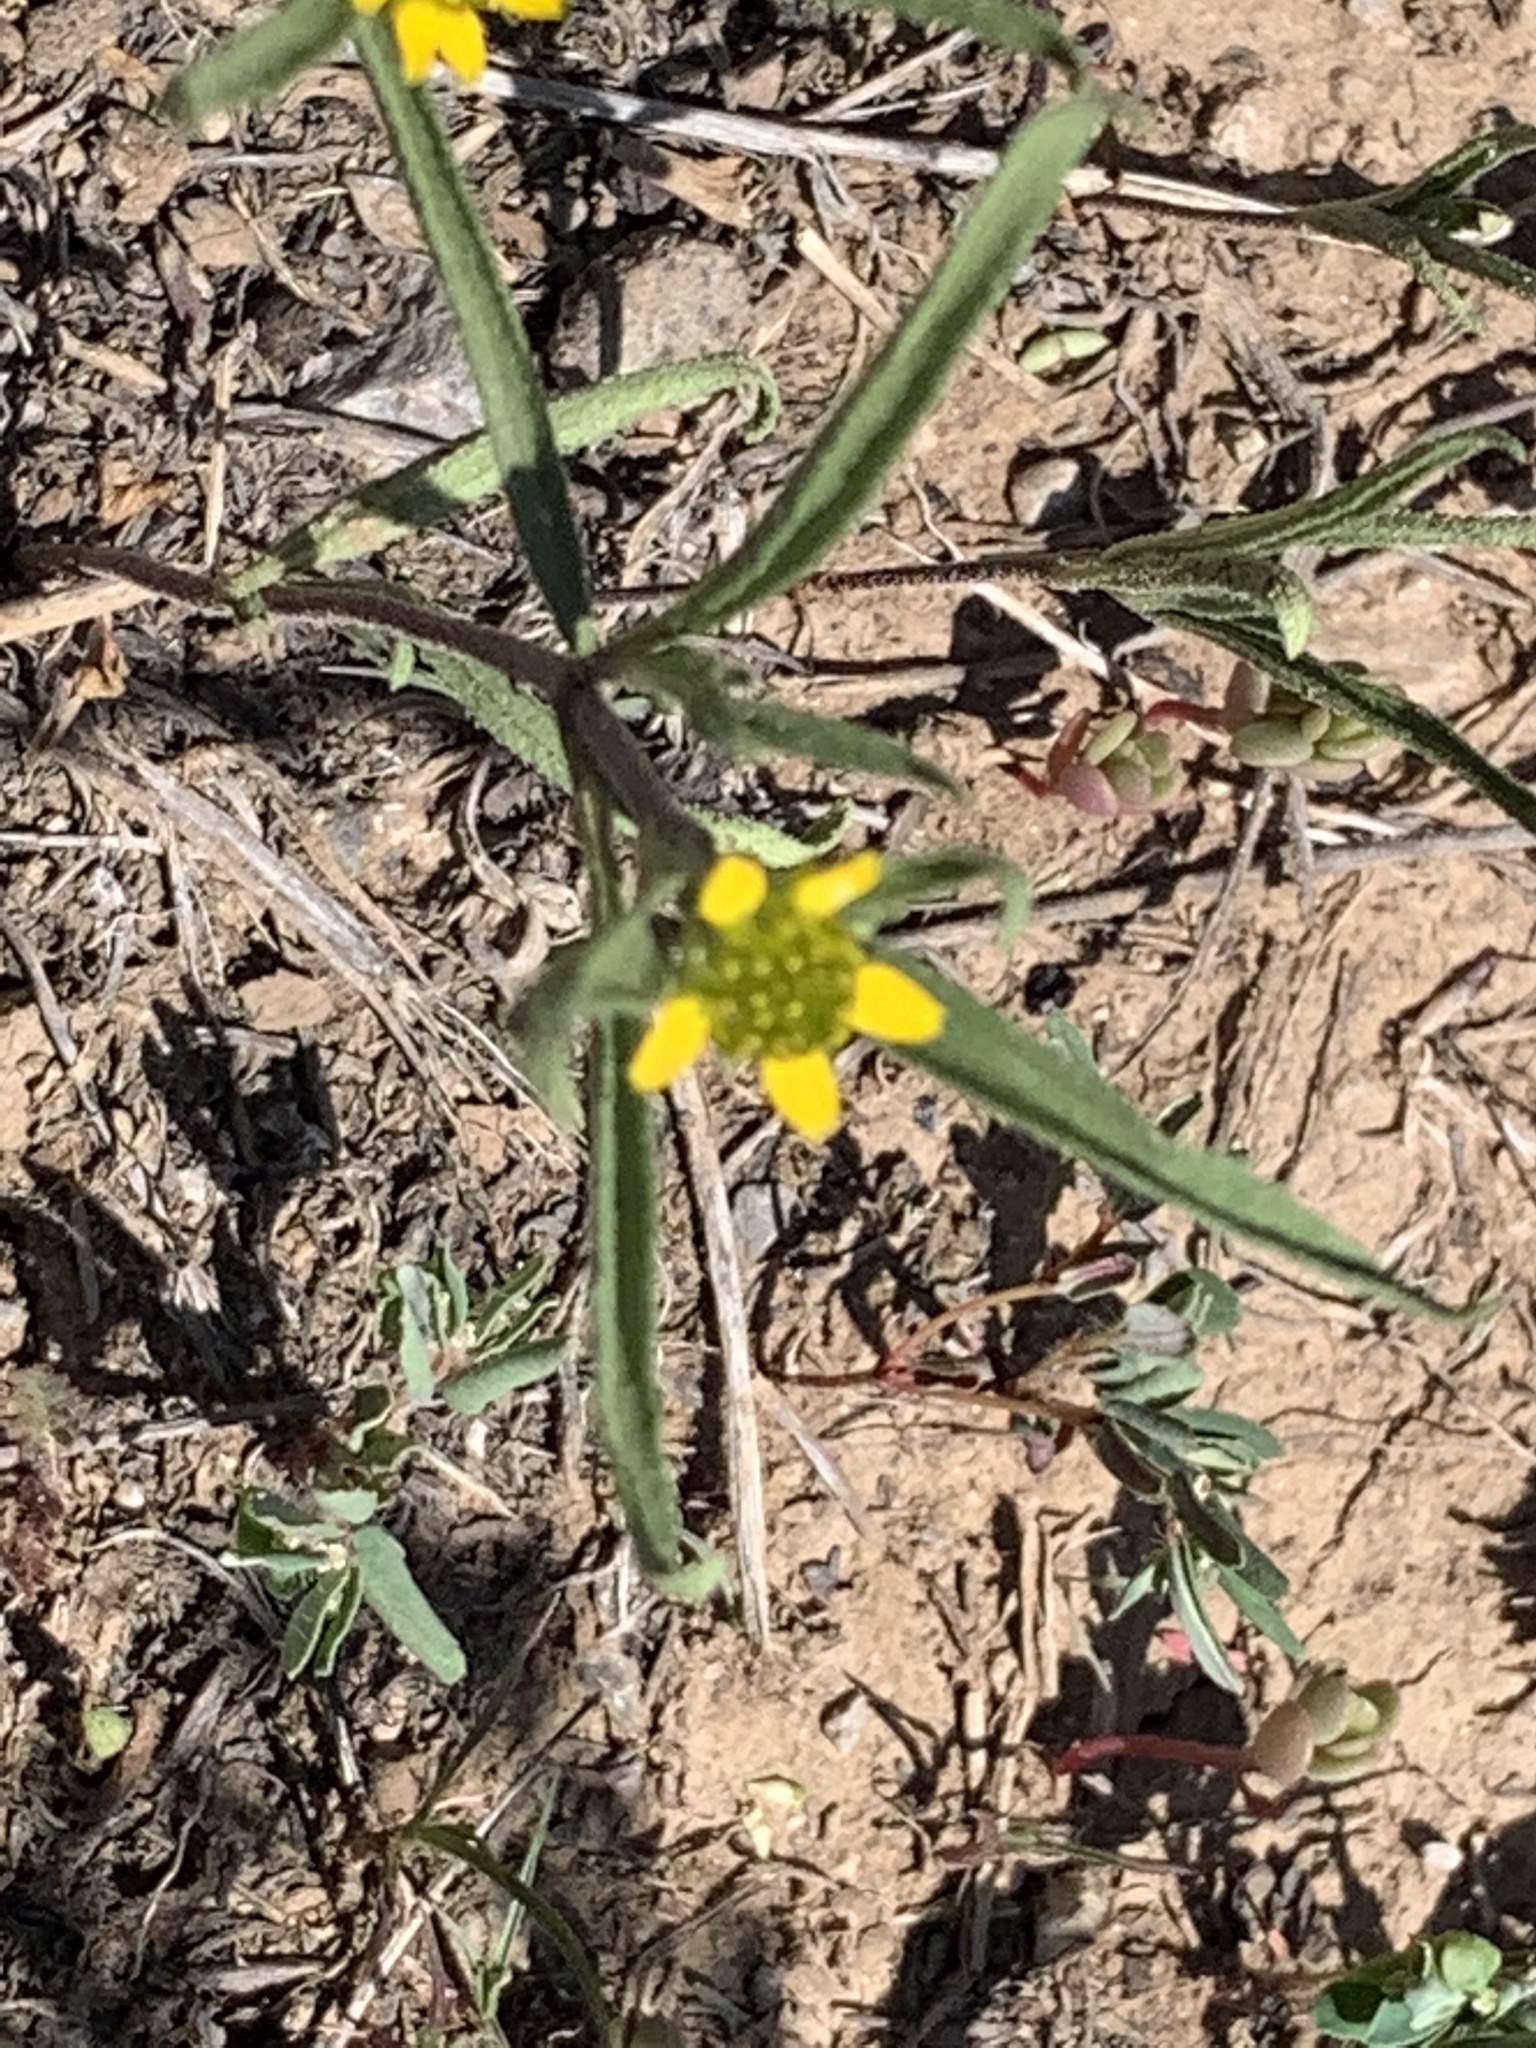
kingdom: Plantae
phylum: Tracheophyta
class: Magnoliopsida
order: Asterales
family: Asteraceae
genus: Sanvitalia
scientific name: Sanvitalia abertii
